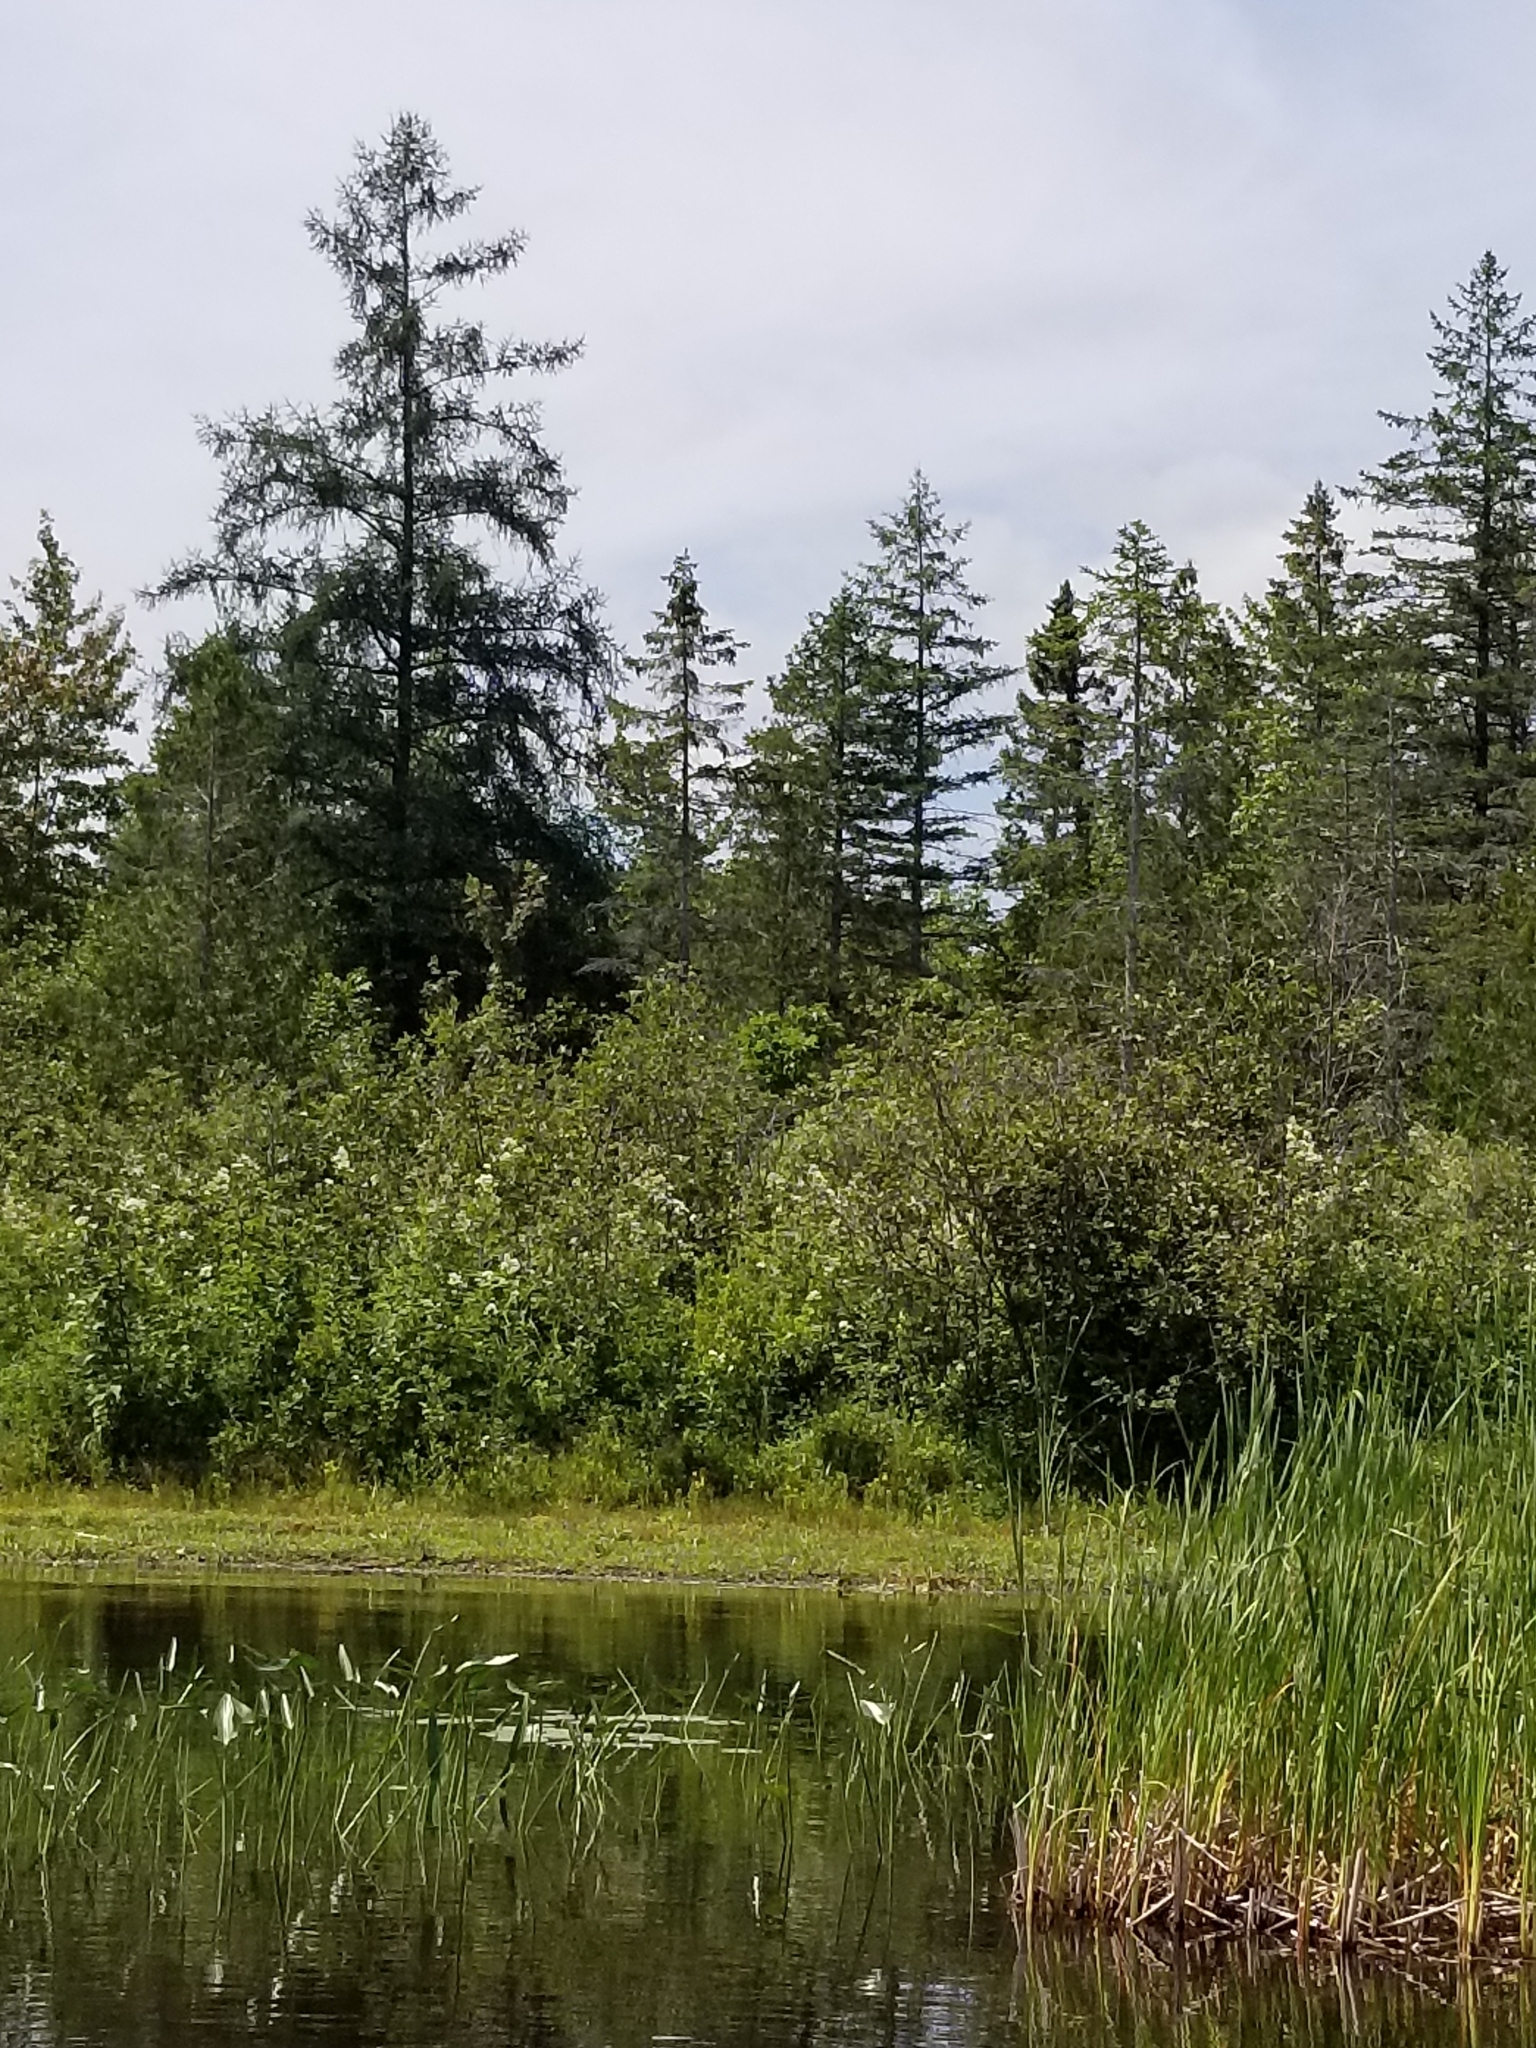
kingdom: Plantae
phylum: Tracheophyta
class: Pinopsida
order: Pinales
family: Pinaceae
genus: Larix
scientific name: Larix laricina
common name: American larch
